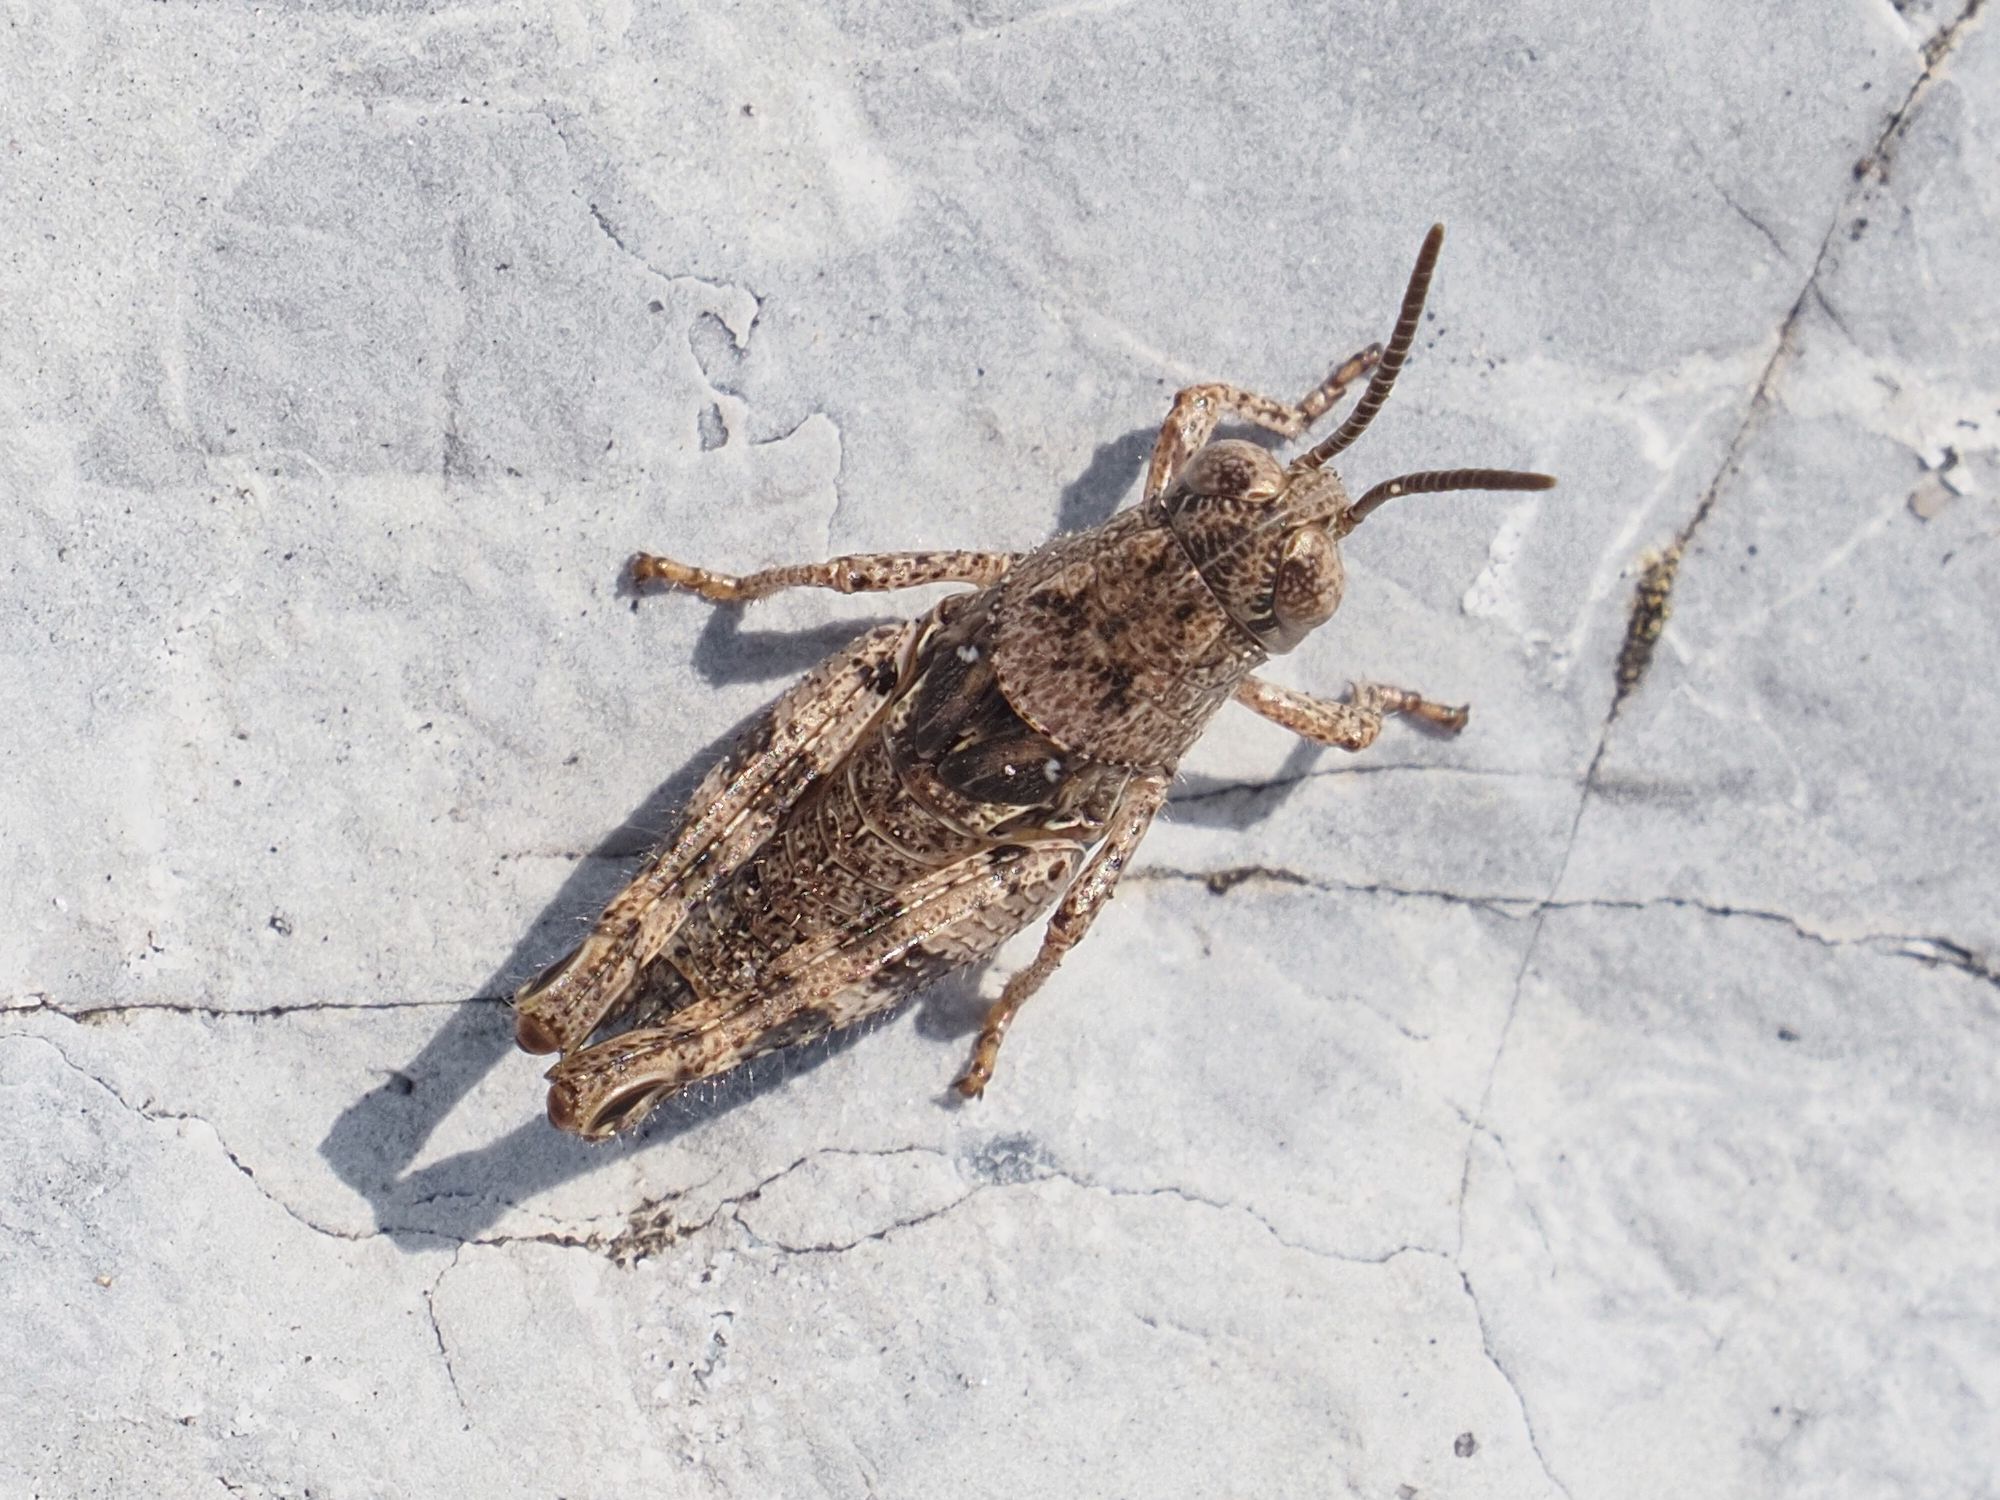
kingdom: Animalia
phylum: Arthropoda
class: Insecta
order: Orthoptera
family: Acrididae
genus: Calliptamus
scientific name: Calliptamus italicus
